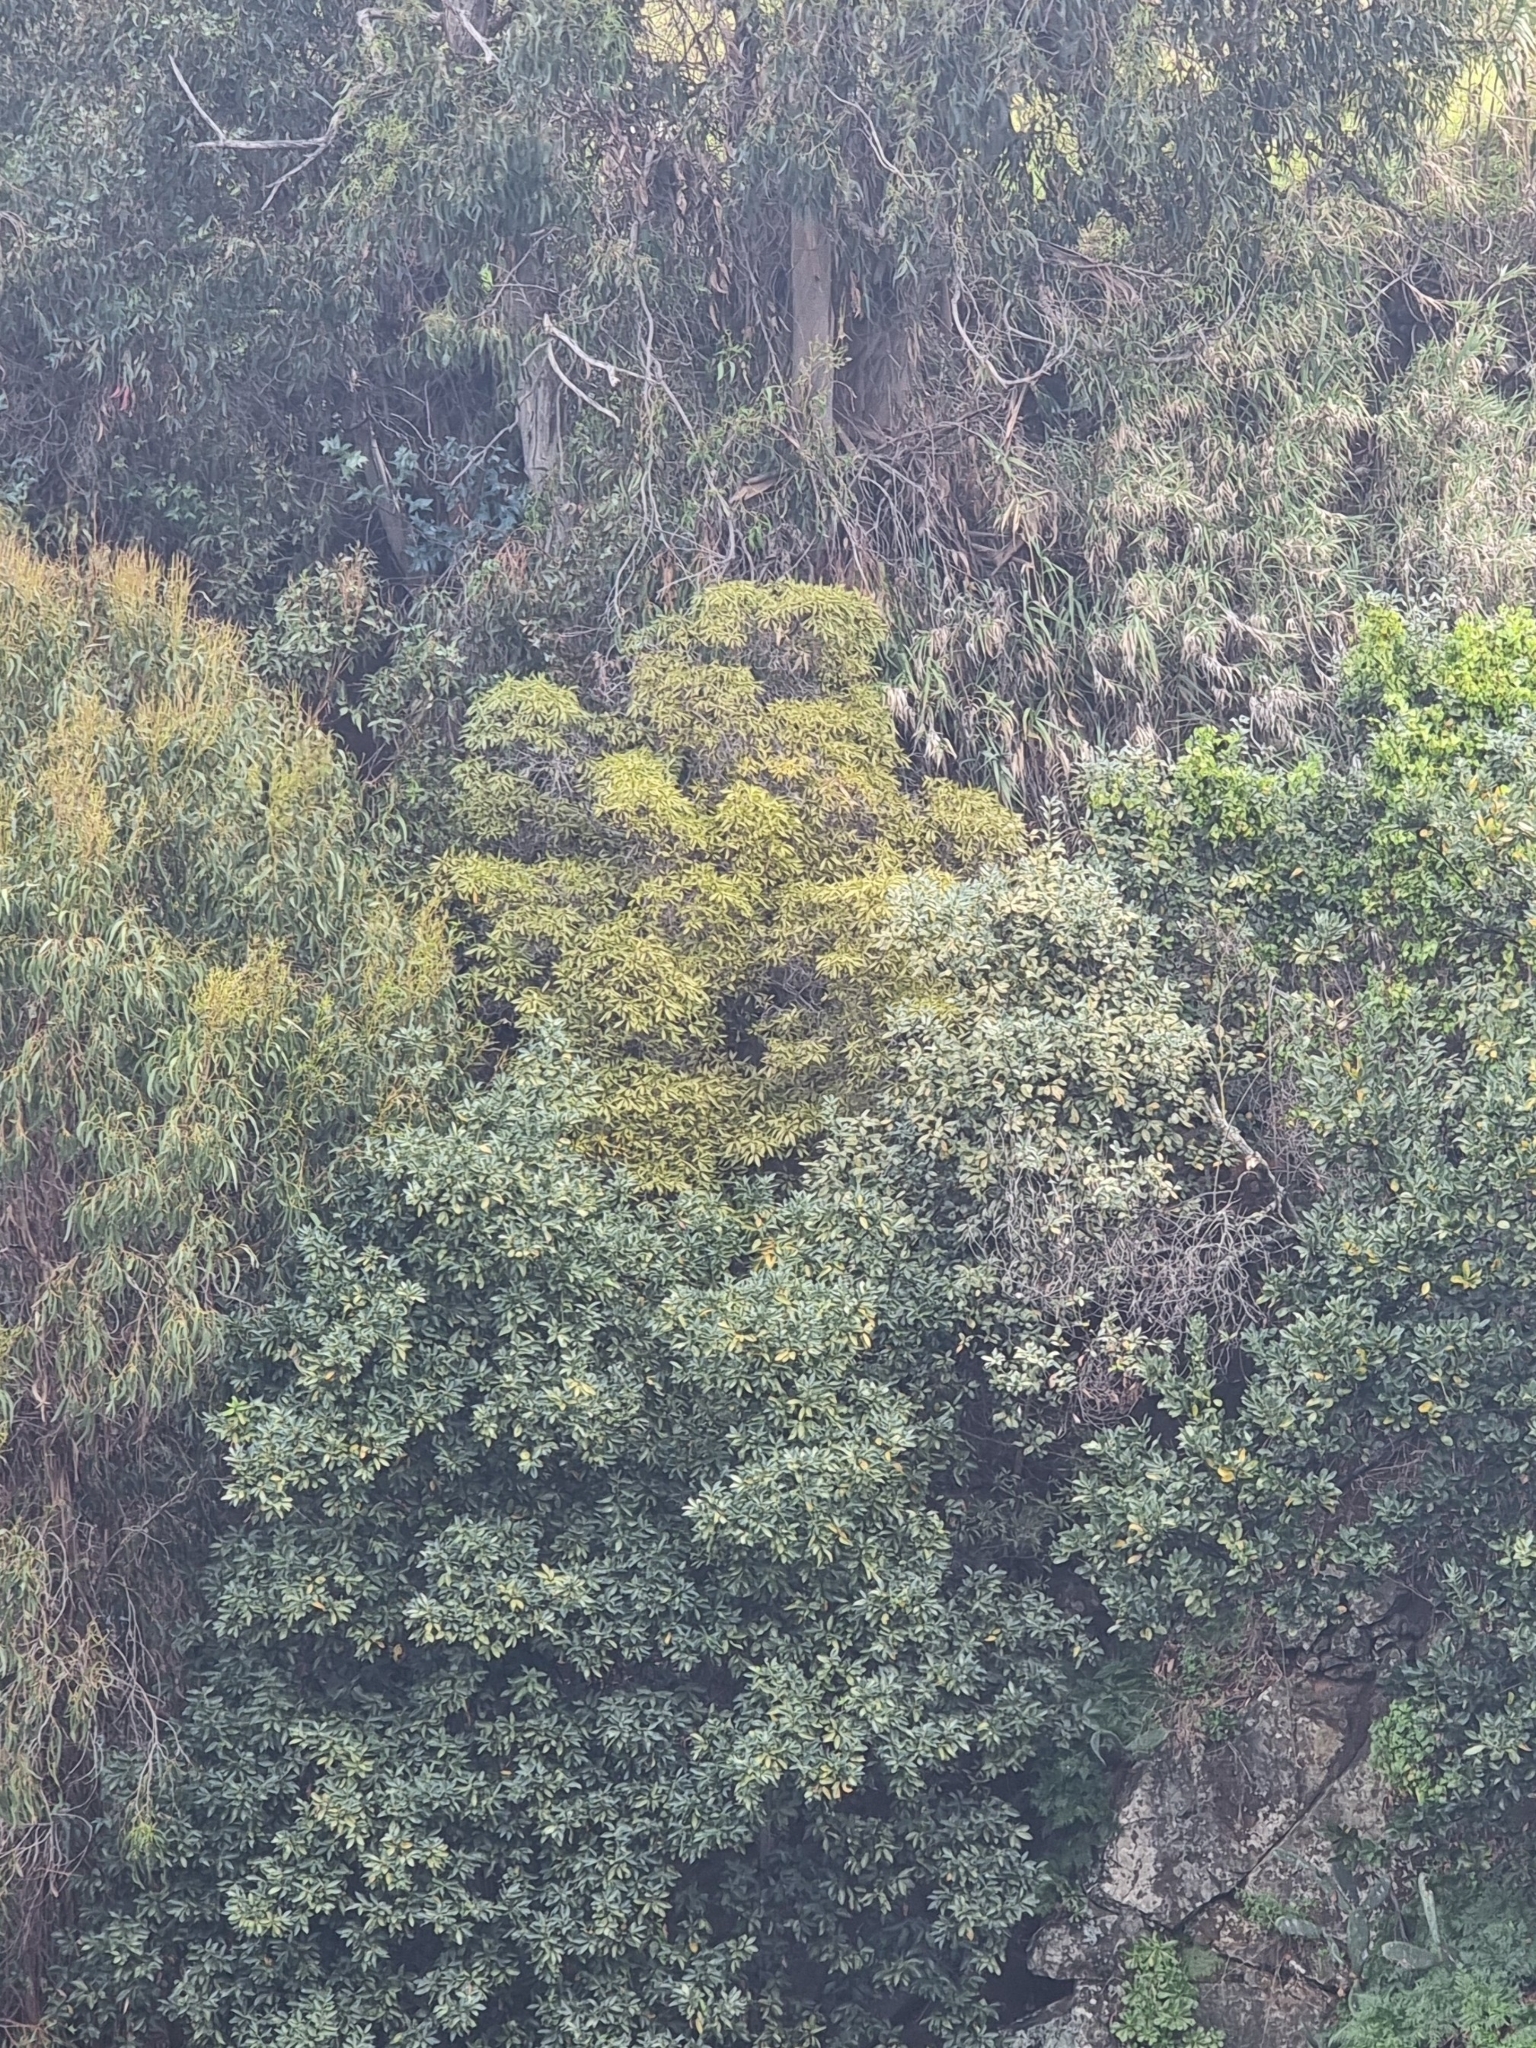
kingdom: Plantae
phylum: Tracheophyta
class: Magnoliopsida
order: Apiales
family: Pittosporaceae
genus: Pittosporum
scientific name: Pittosporum undulatum
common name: Australian cheesewood
